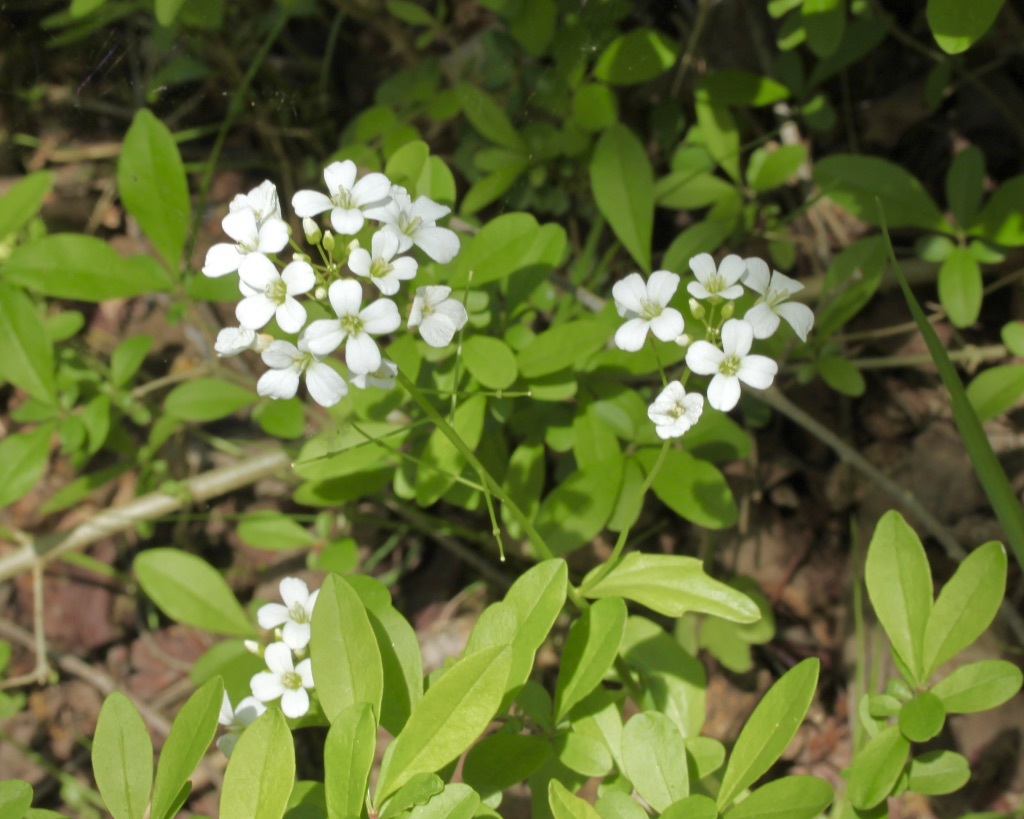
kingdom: Plantae
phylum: Tracheophyta
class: Magnoliopsida
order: Brassicales
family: Brassicaceae
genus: Cardamine
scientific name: Cardamine bulbosa
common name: Spring cress
